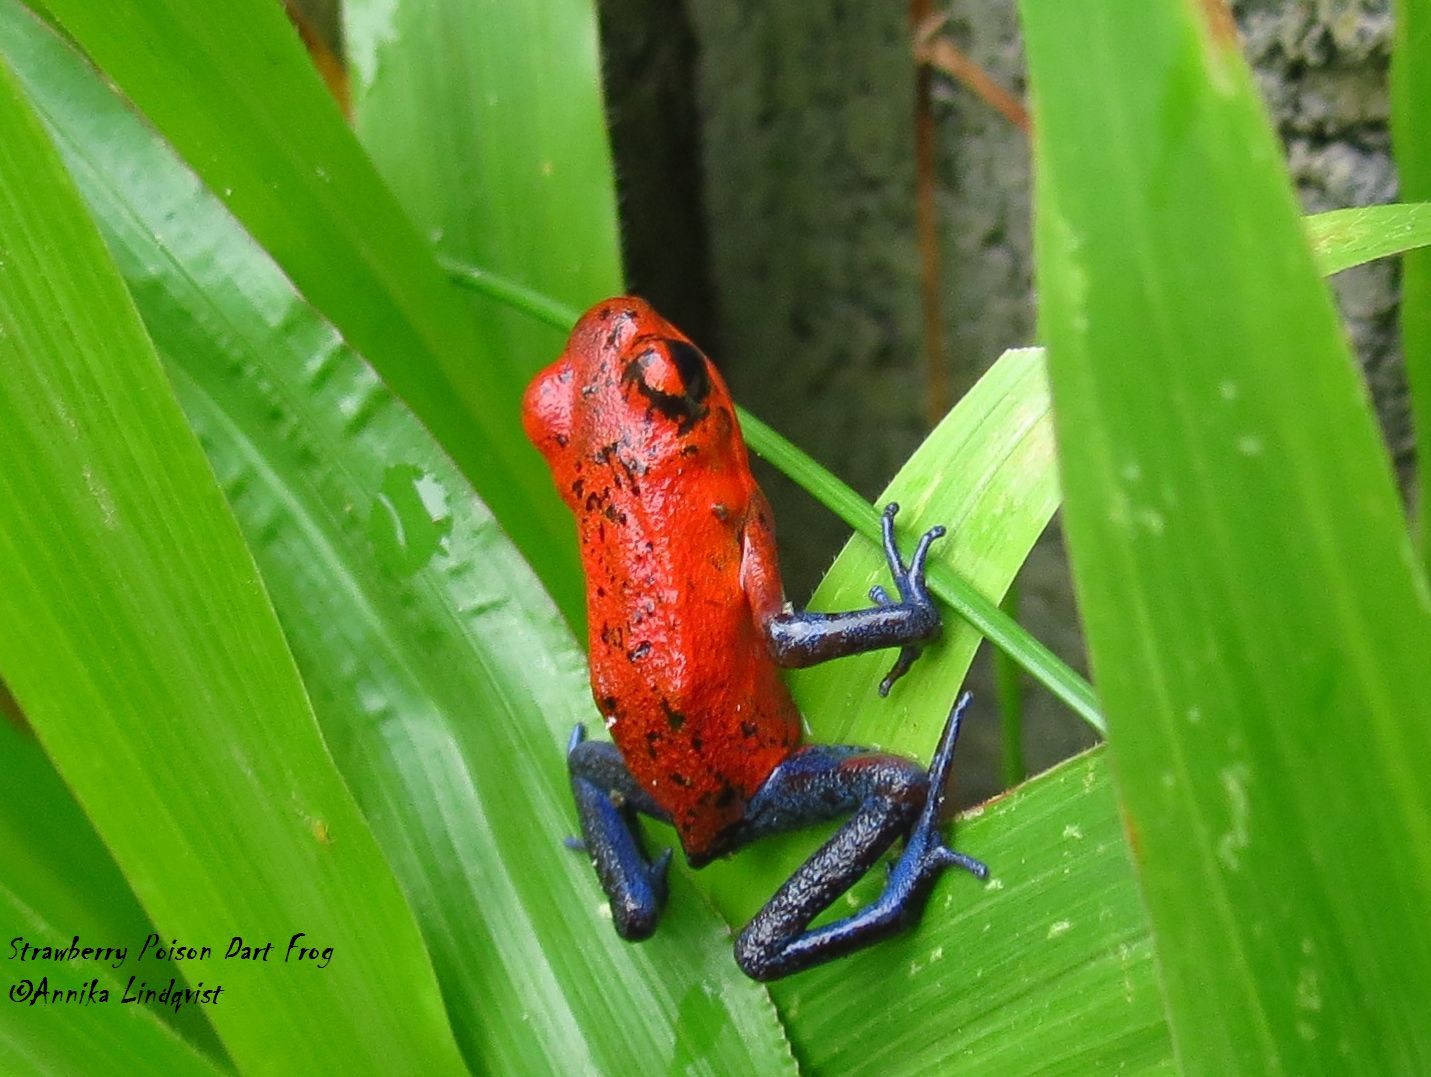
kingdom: Animalia
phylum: Chordata
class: Amphibia
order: Anura
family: Dendrobatidae
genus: Oophaga
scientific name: Oophaga pumilio
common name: Flaming poison frog
